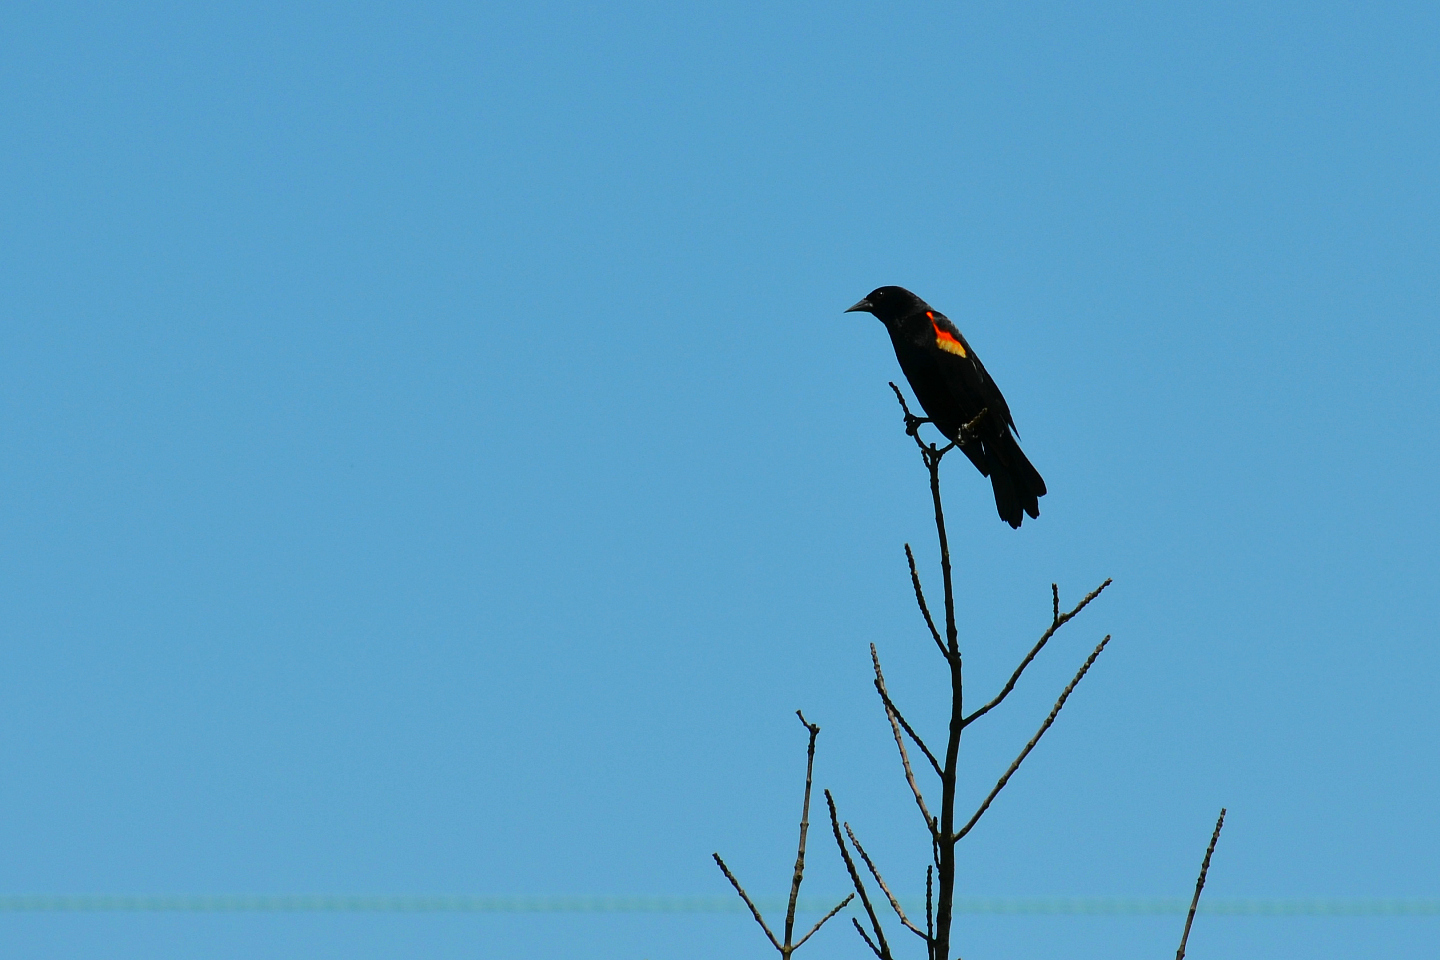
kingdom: Animalia
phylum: Chordata
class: Aves
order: Passeriformes
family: Icteridae
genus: Agelaius
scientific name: Agelaius phoeniceus
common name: Red-winged blackbird
